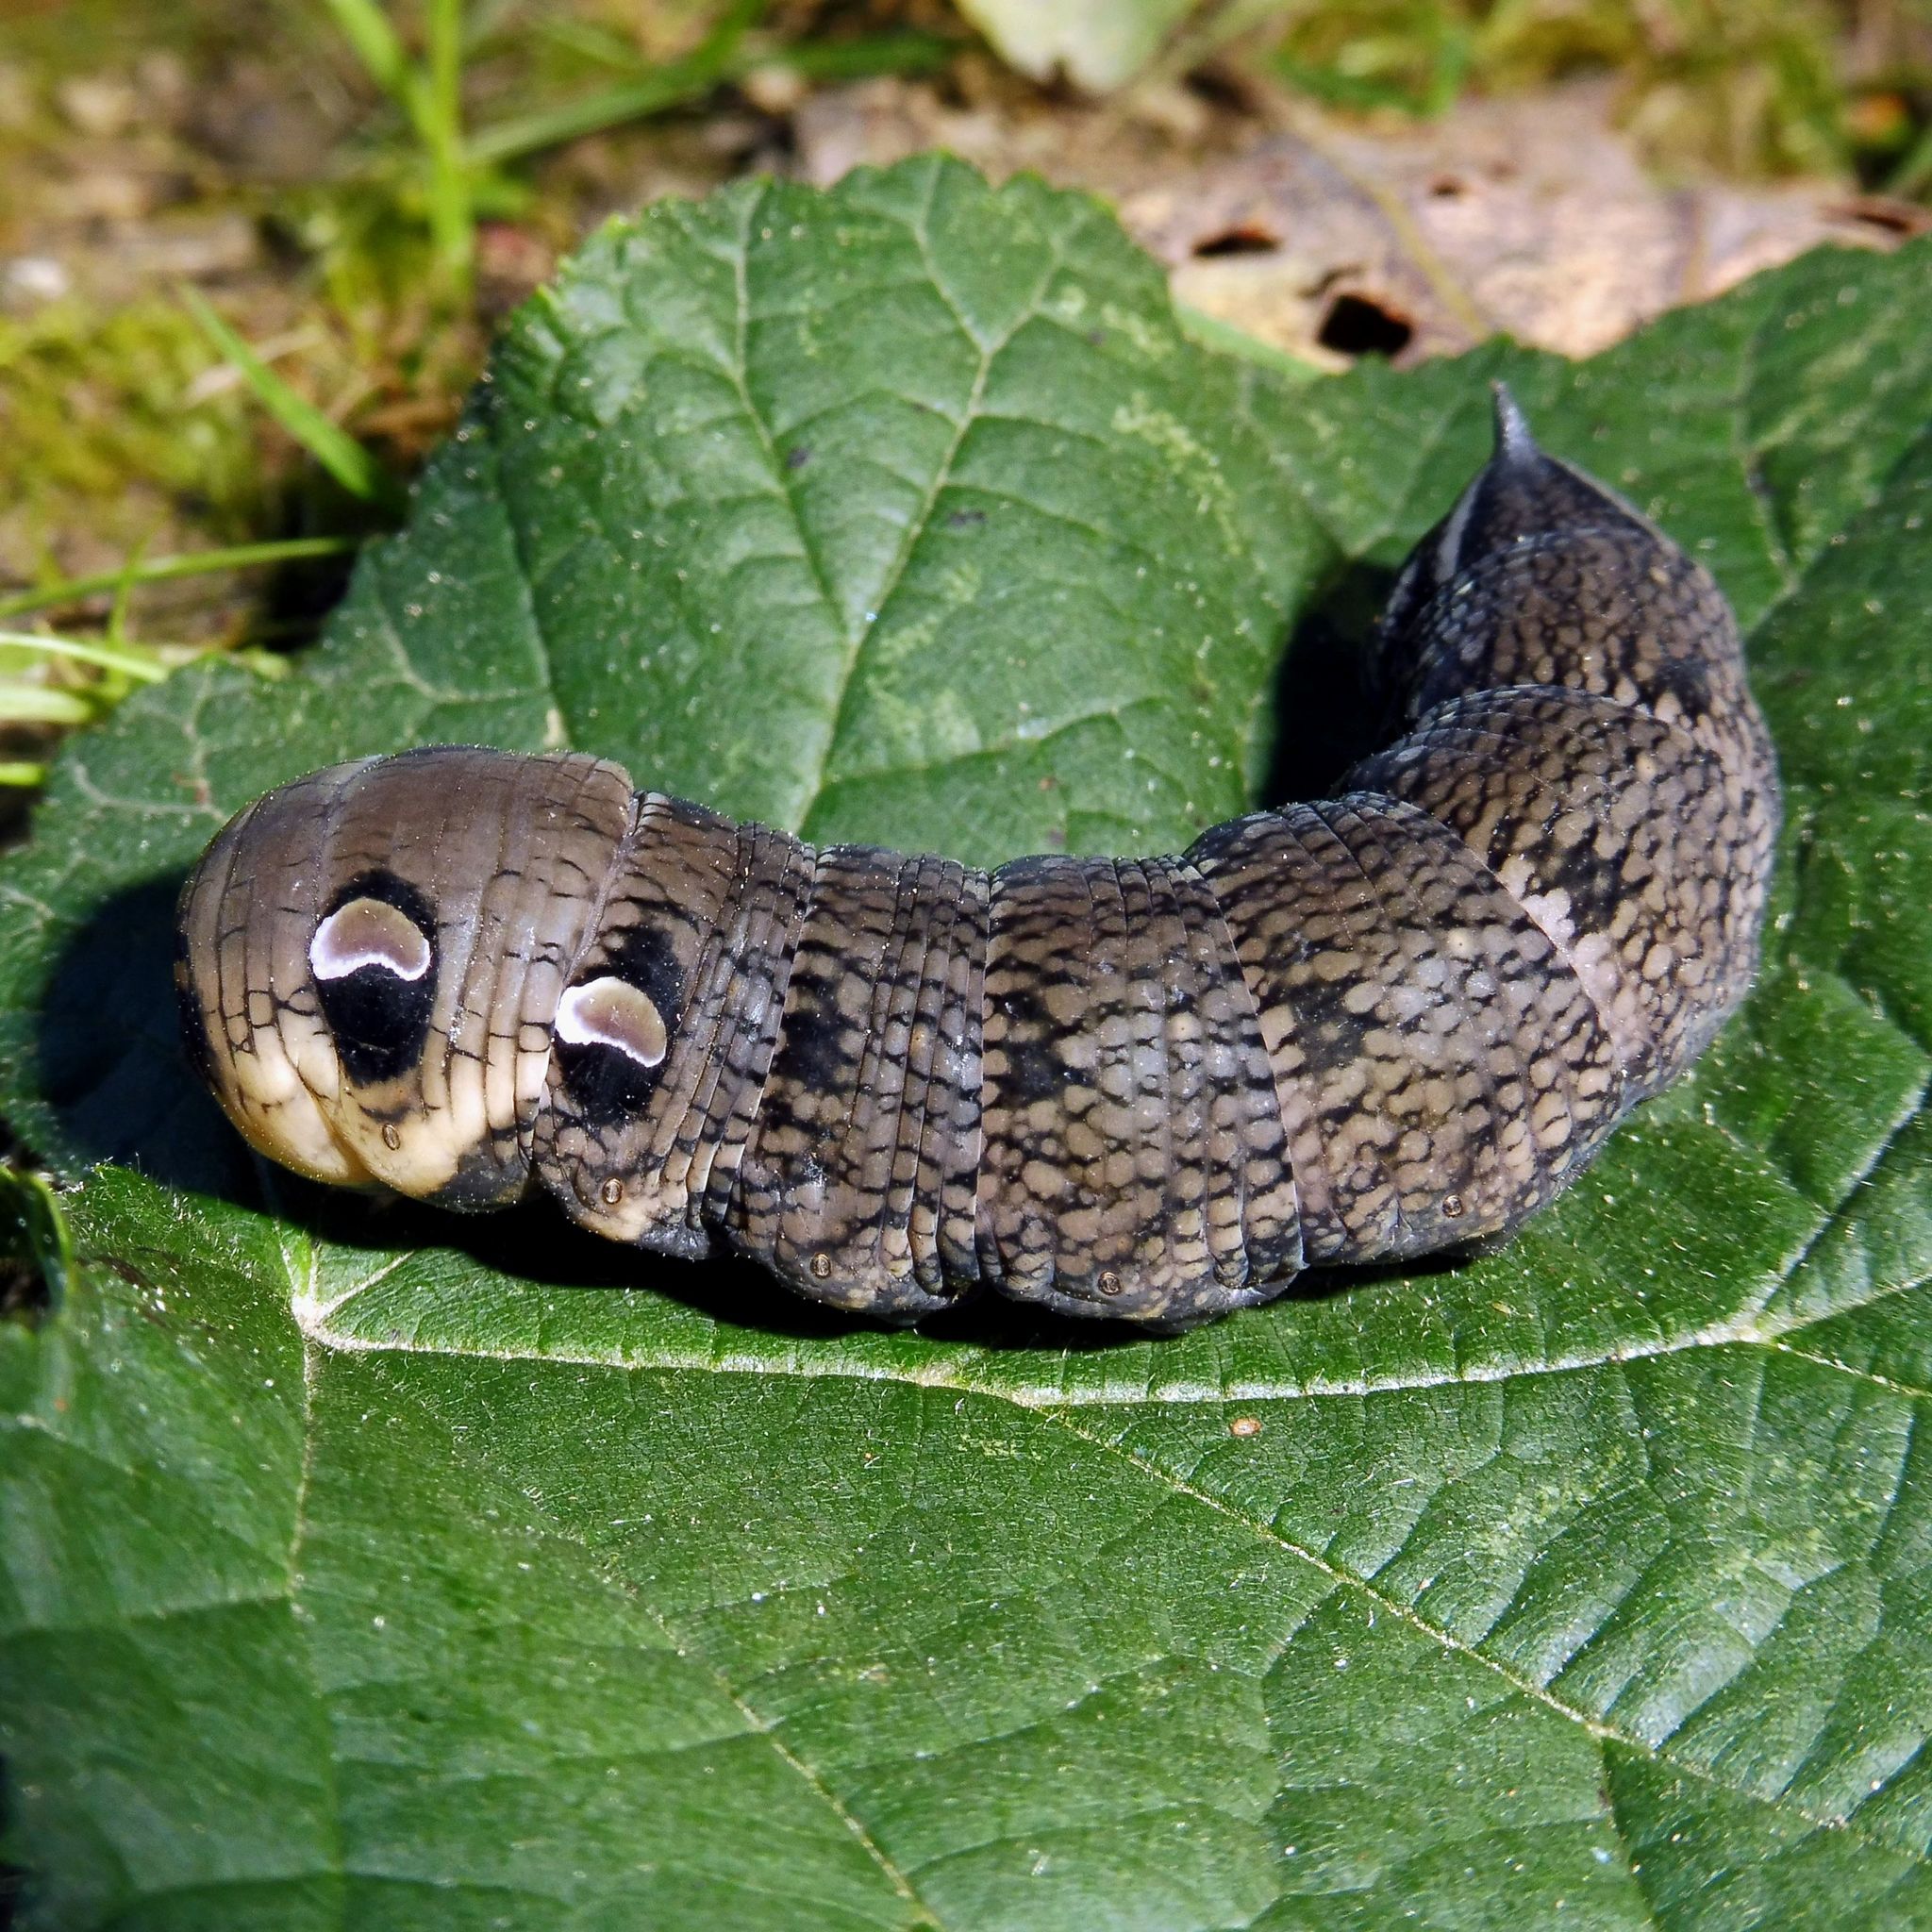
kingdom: Animalia
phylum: Arthropoda
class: Insecta
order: Lepidoptera
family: Sphingidae
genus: Deilephila
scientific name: Deilephila elpenor
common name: Elephant hawk-moth
